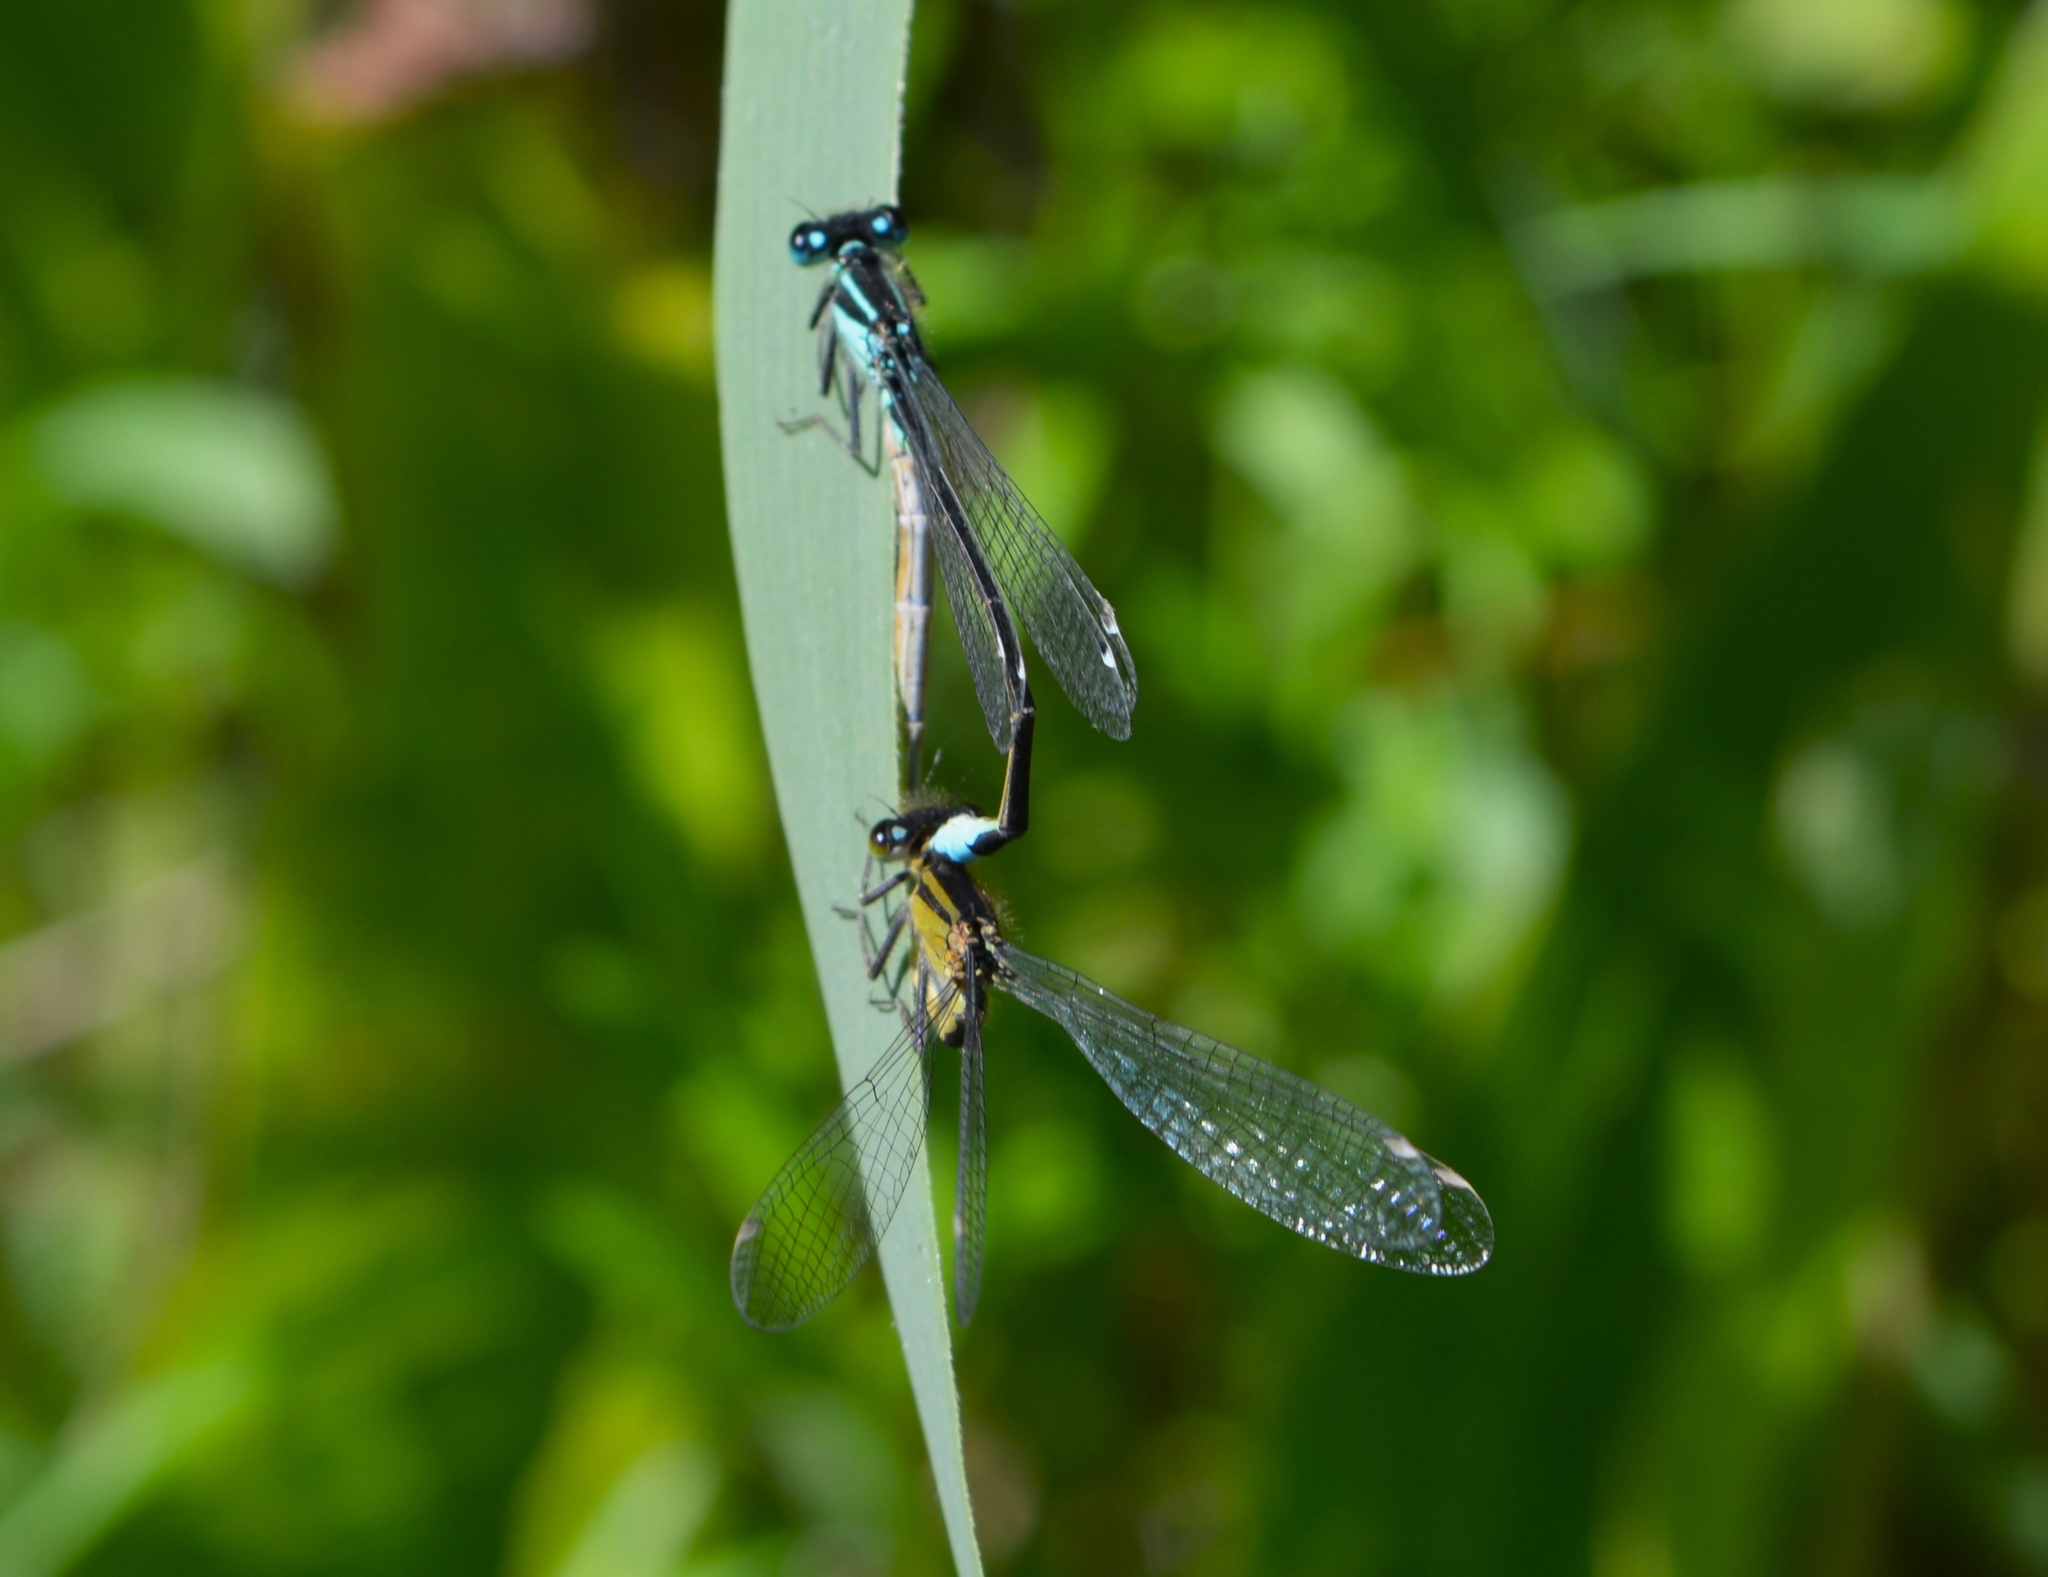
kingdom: Animalia
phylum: Arthropoda
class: Insecta
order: Odonata
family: Coenagrionidae
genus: Ischnura
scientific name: Ischnura elegans
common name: Blue-tailed damselfly
